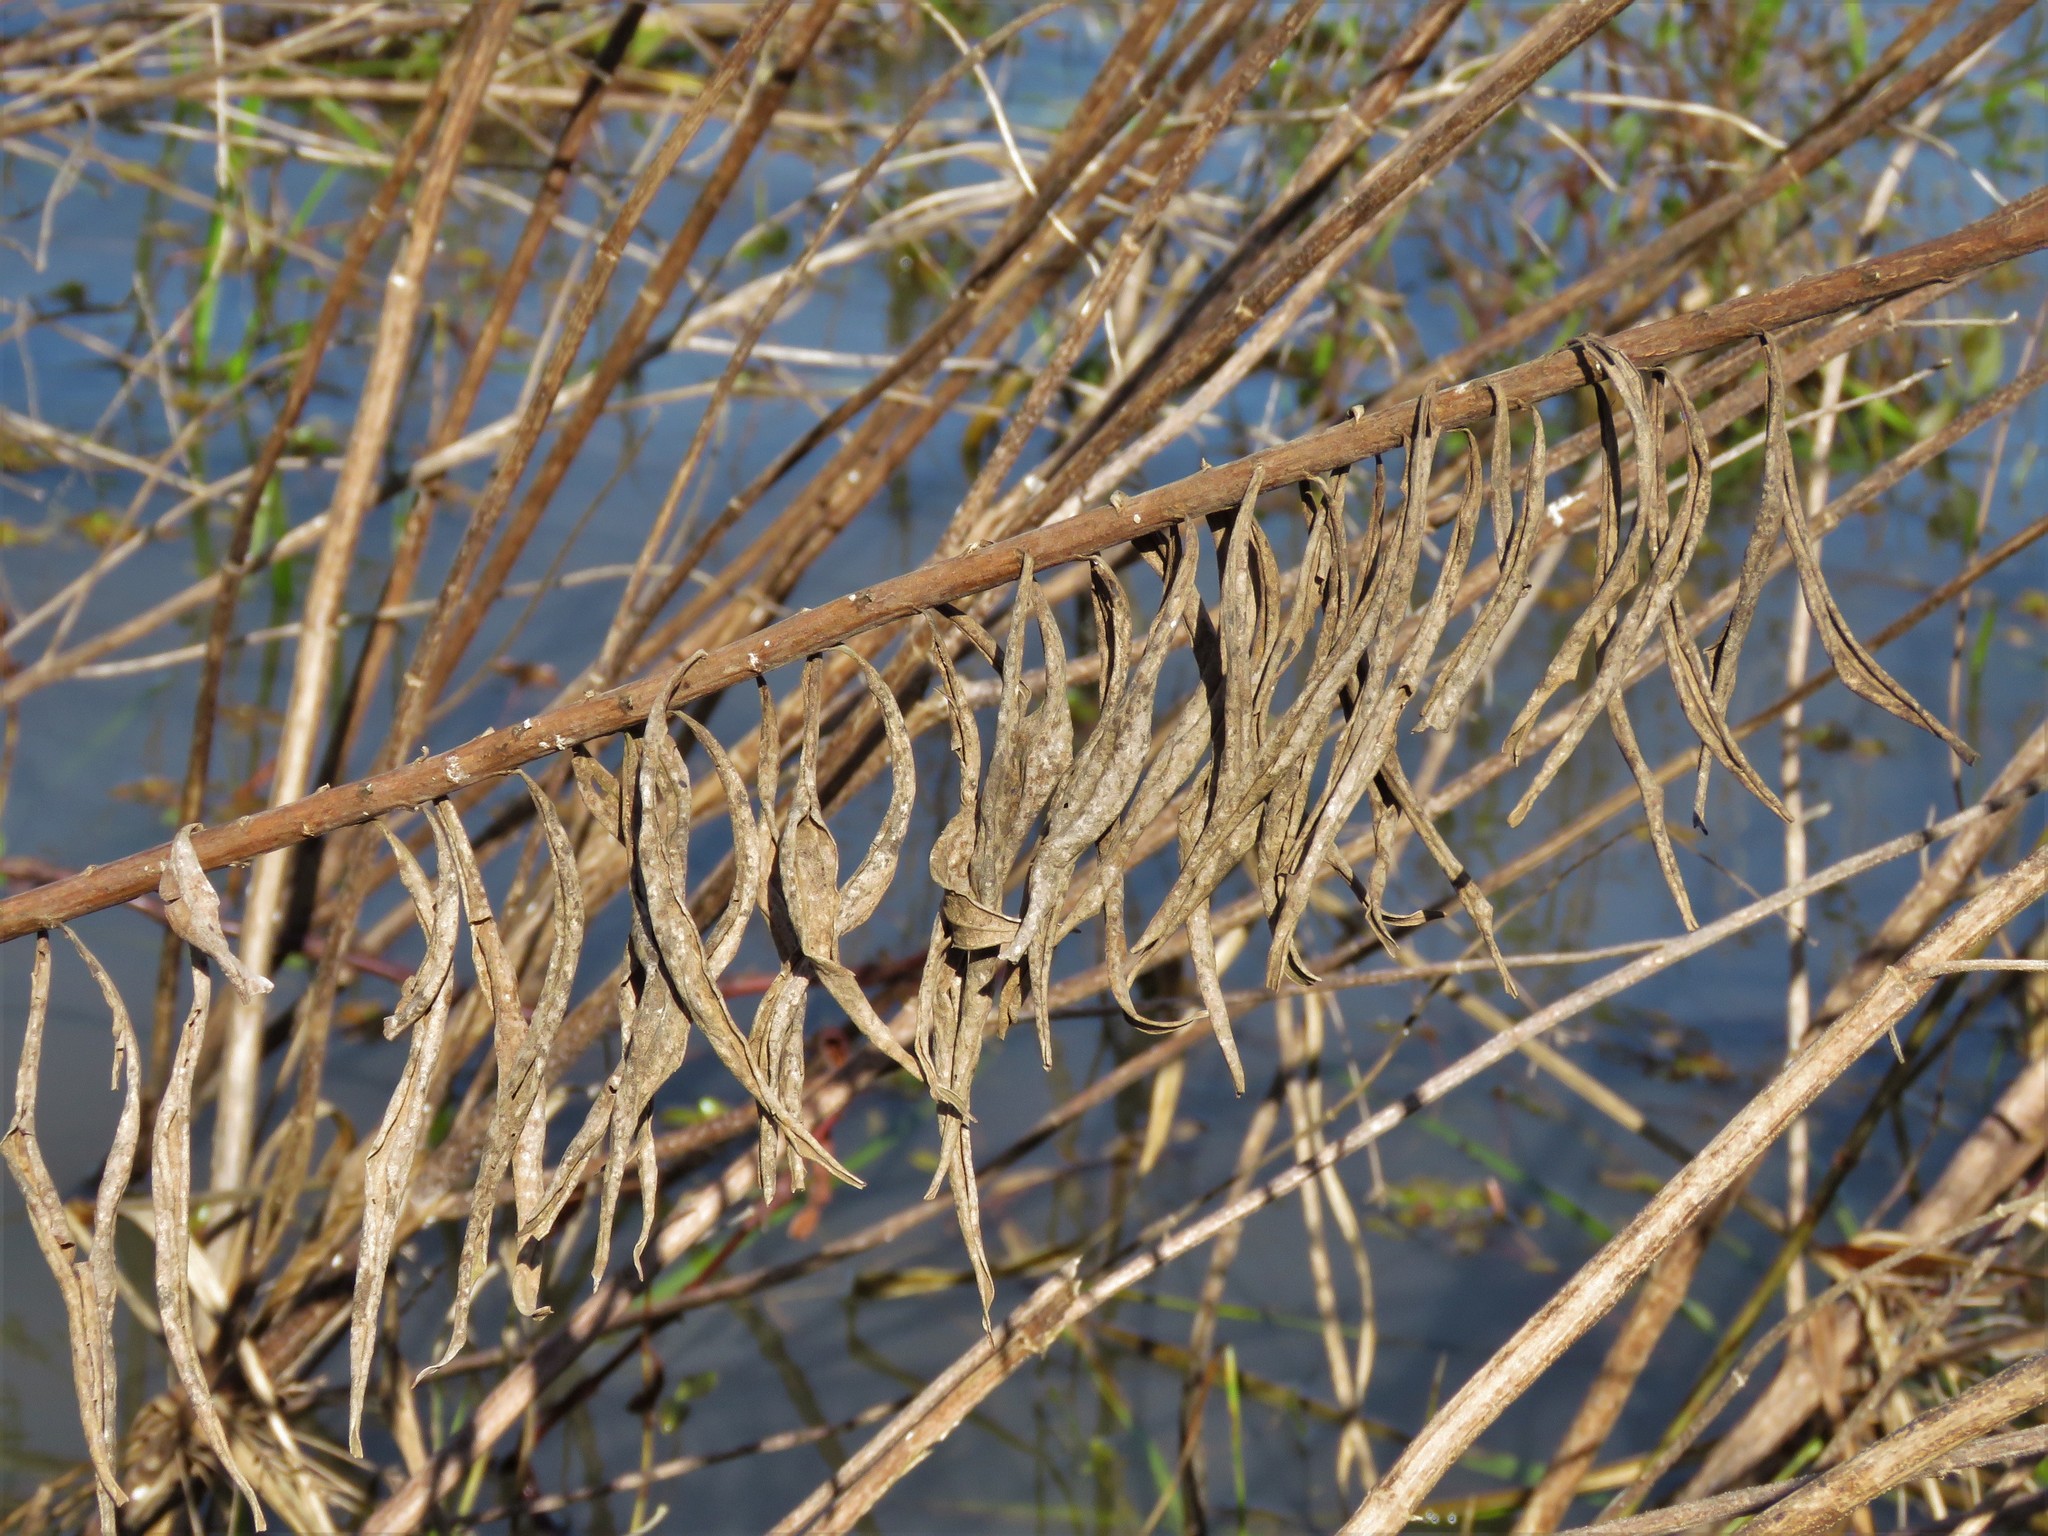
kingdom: Animalia
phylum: Arthropoda
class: Insecta
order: Diptera
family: Tephritidae
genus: Eurosta
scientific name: Eurosta solidaginis
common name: Goldenrod gall fly
